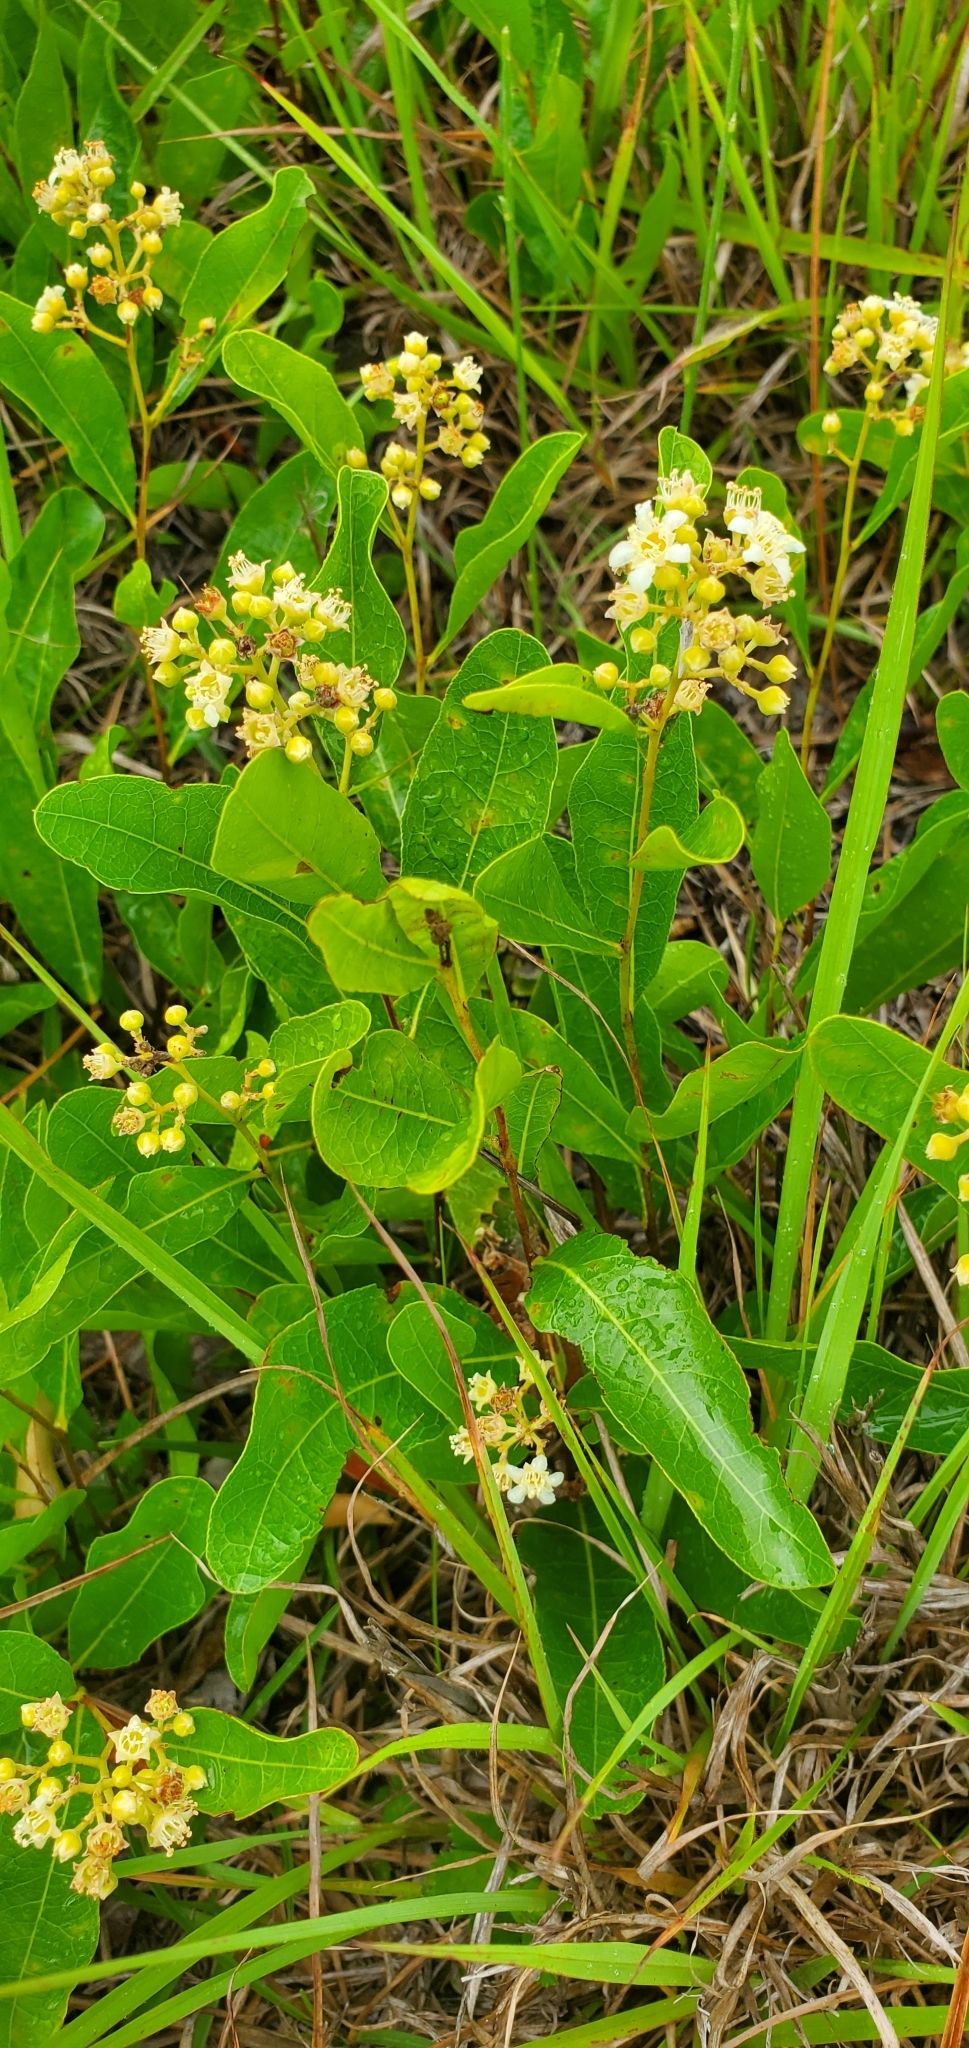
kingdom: Plantae
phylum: Tracheophyta
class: Magnoliopsida
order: Malpighiales
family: Chrysobalanaceae
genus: Geobalanus
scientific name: Geobalanus oblongifolius
